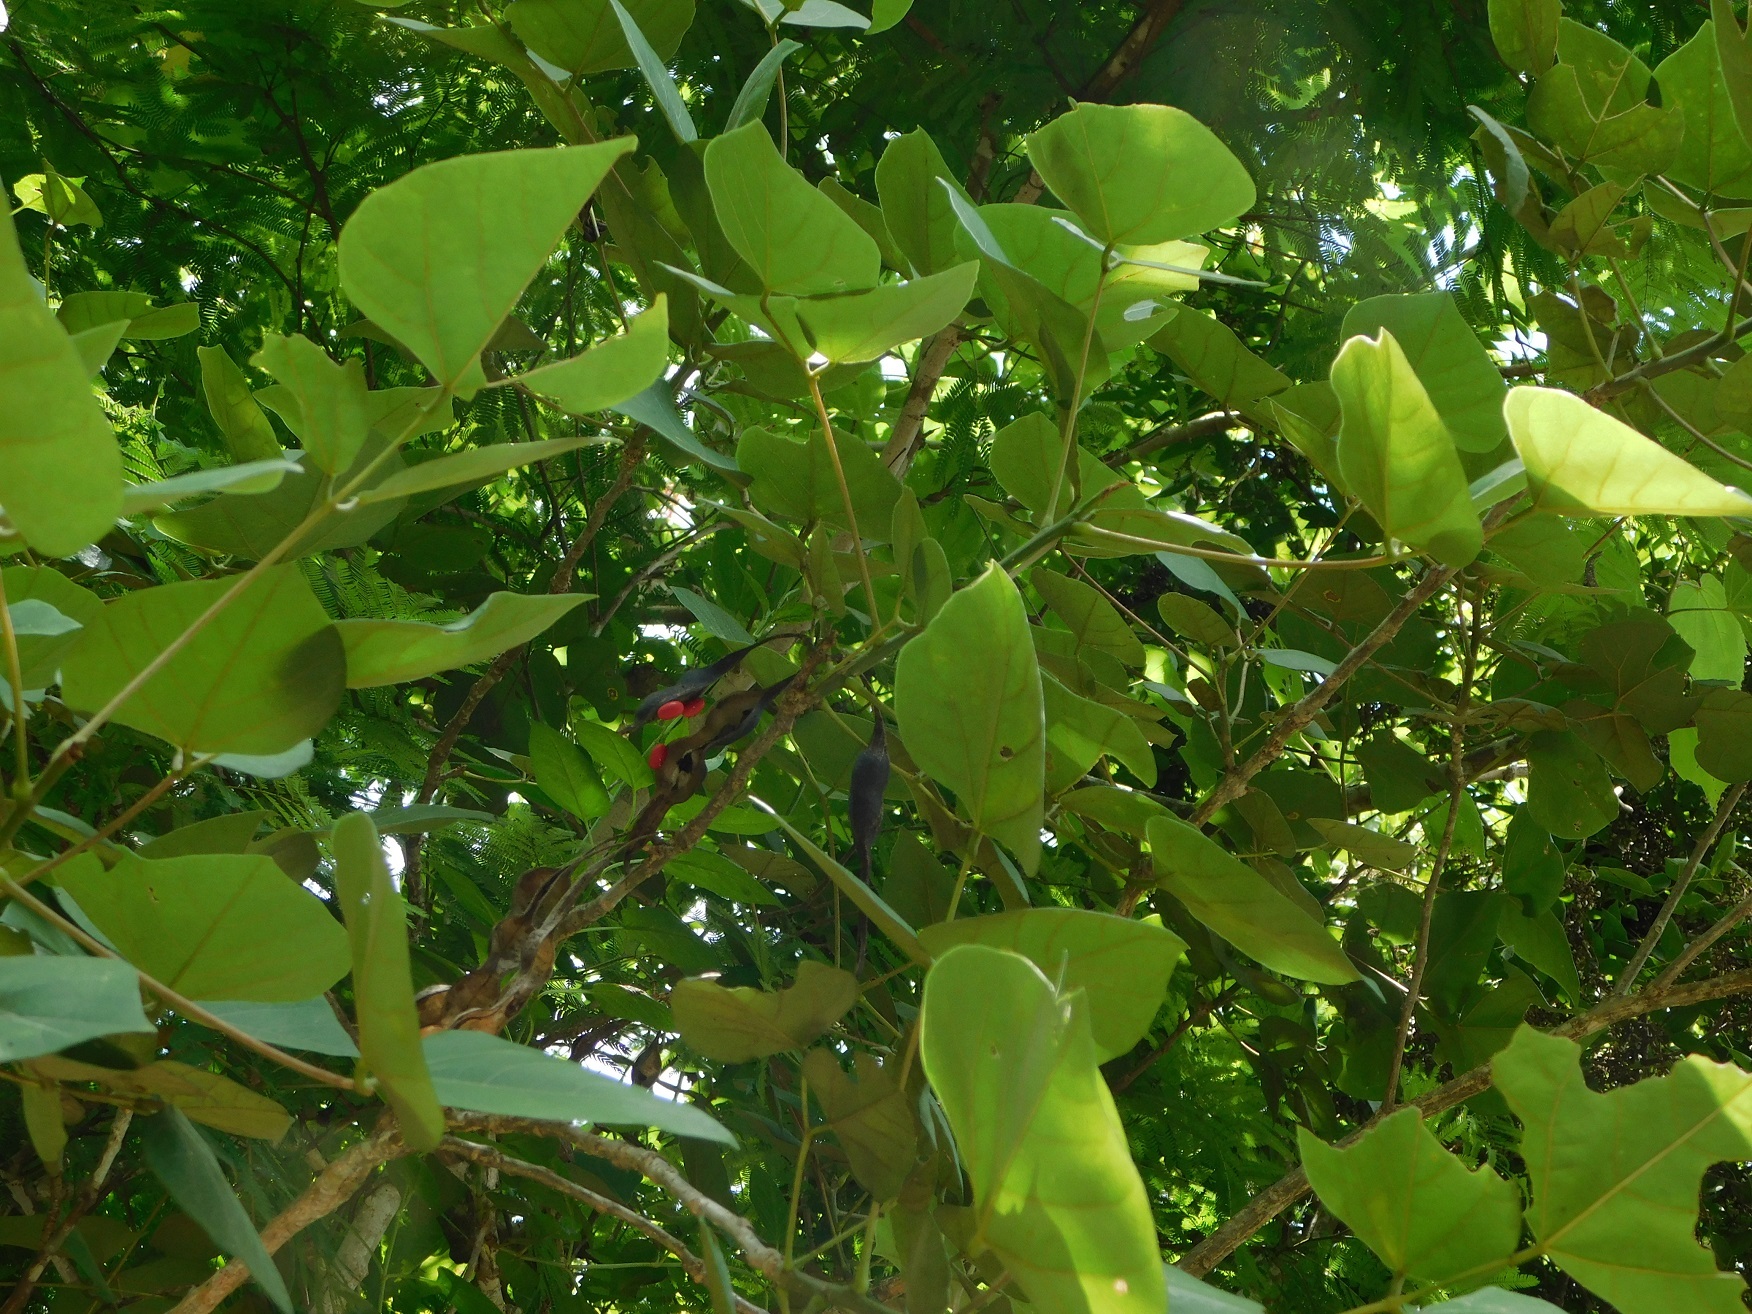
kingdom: Plantae
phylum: Tracheophyta
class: Magnoliopsida
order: Fabales
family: Fabaceae
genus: Erythrina
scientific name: Erythrina goldmanii
